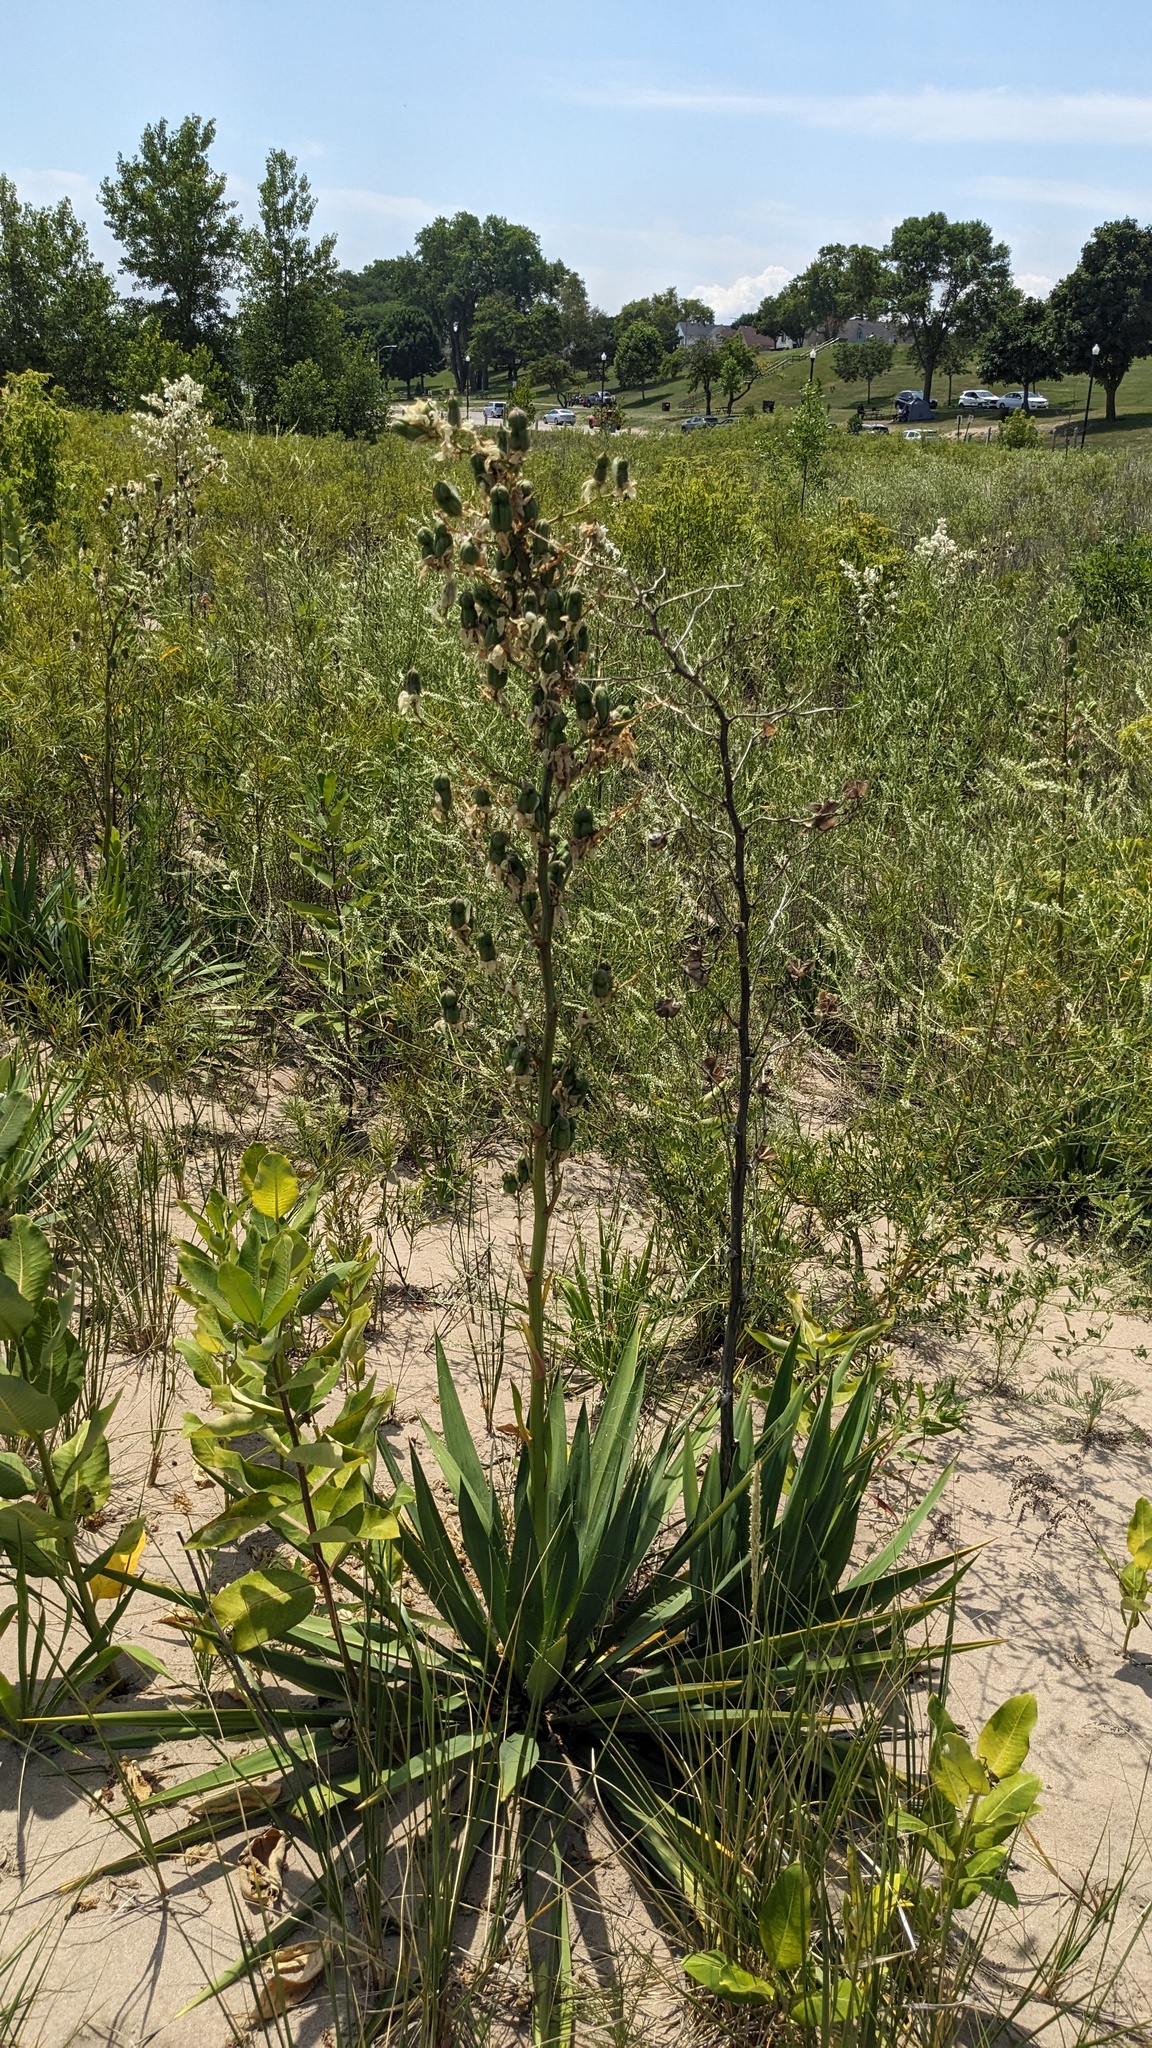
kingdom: Plantae
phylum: Tracheophyta
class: Liliopsida
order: Asparagales
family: Asparagaceae
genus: Yucca
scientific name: Yucca flaccida
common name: Adam's-needle
